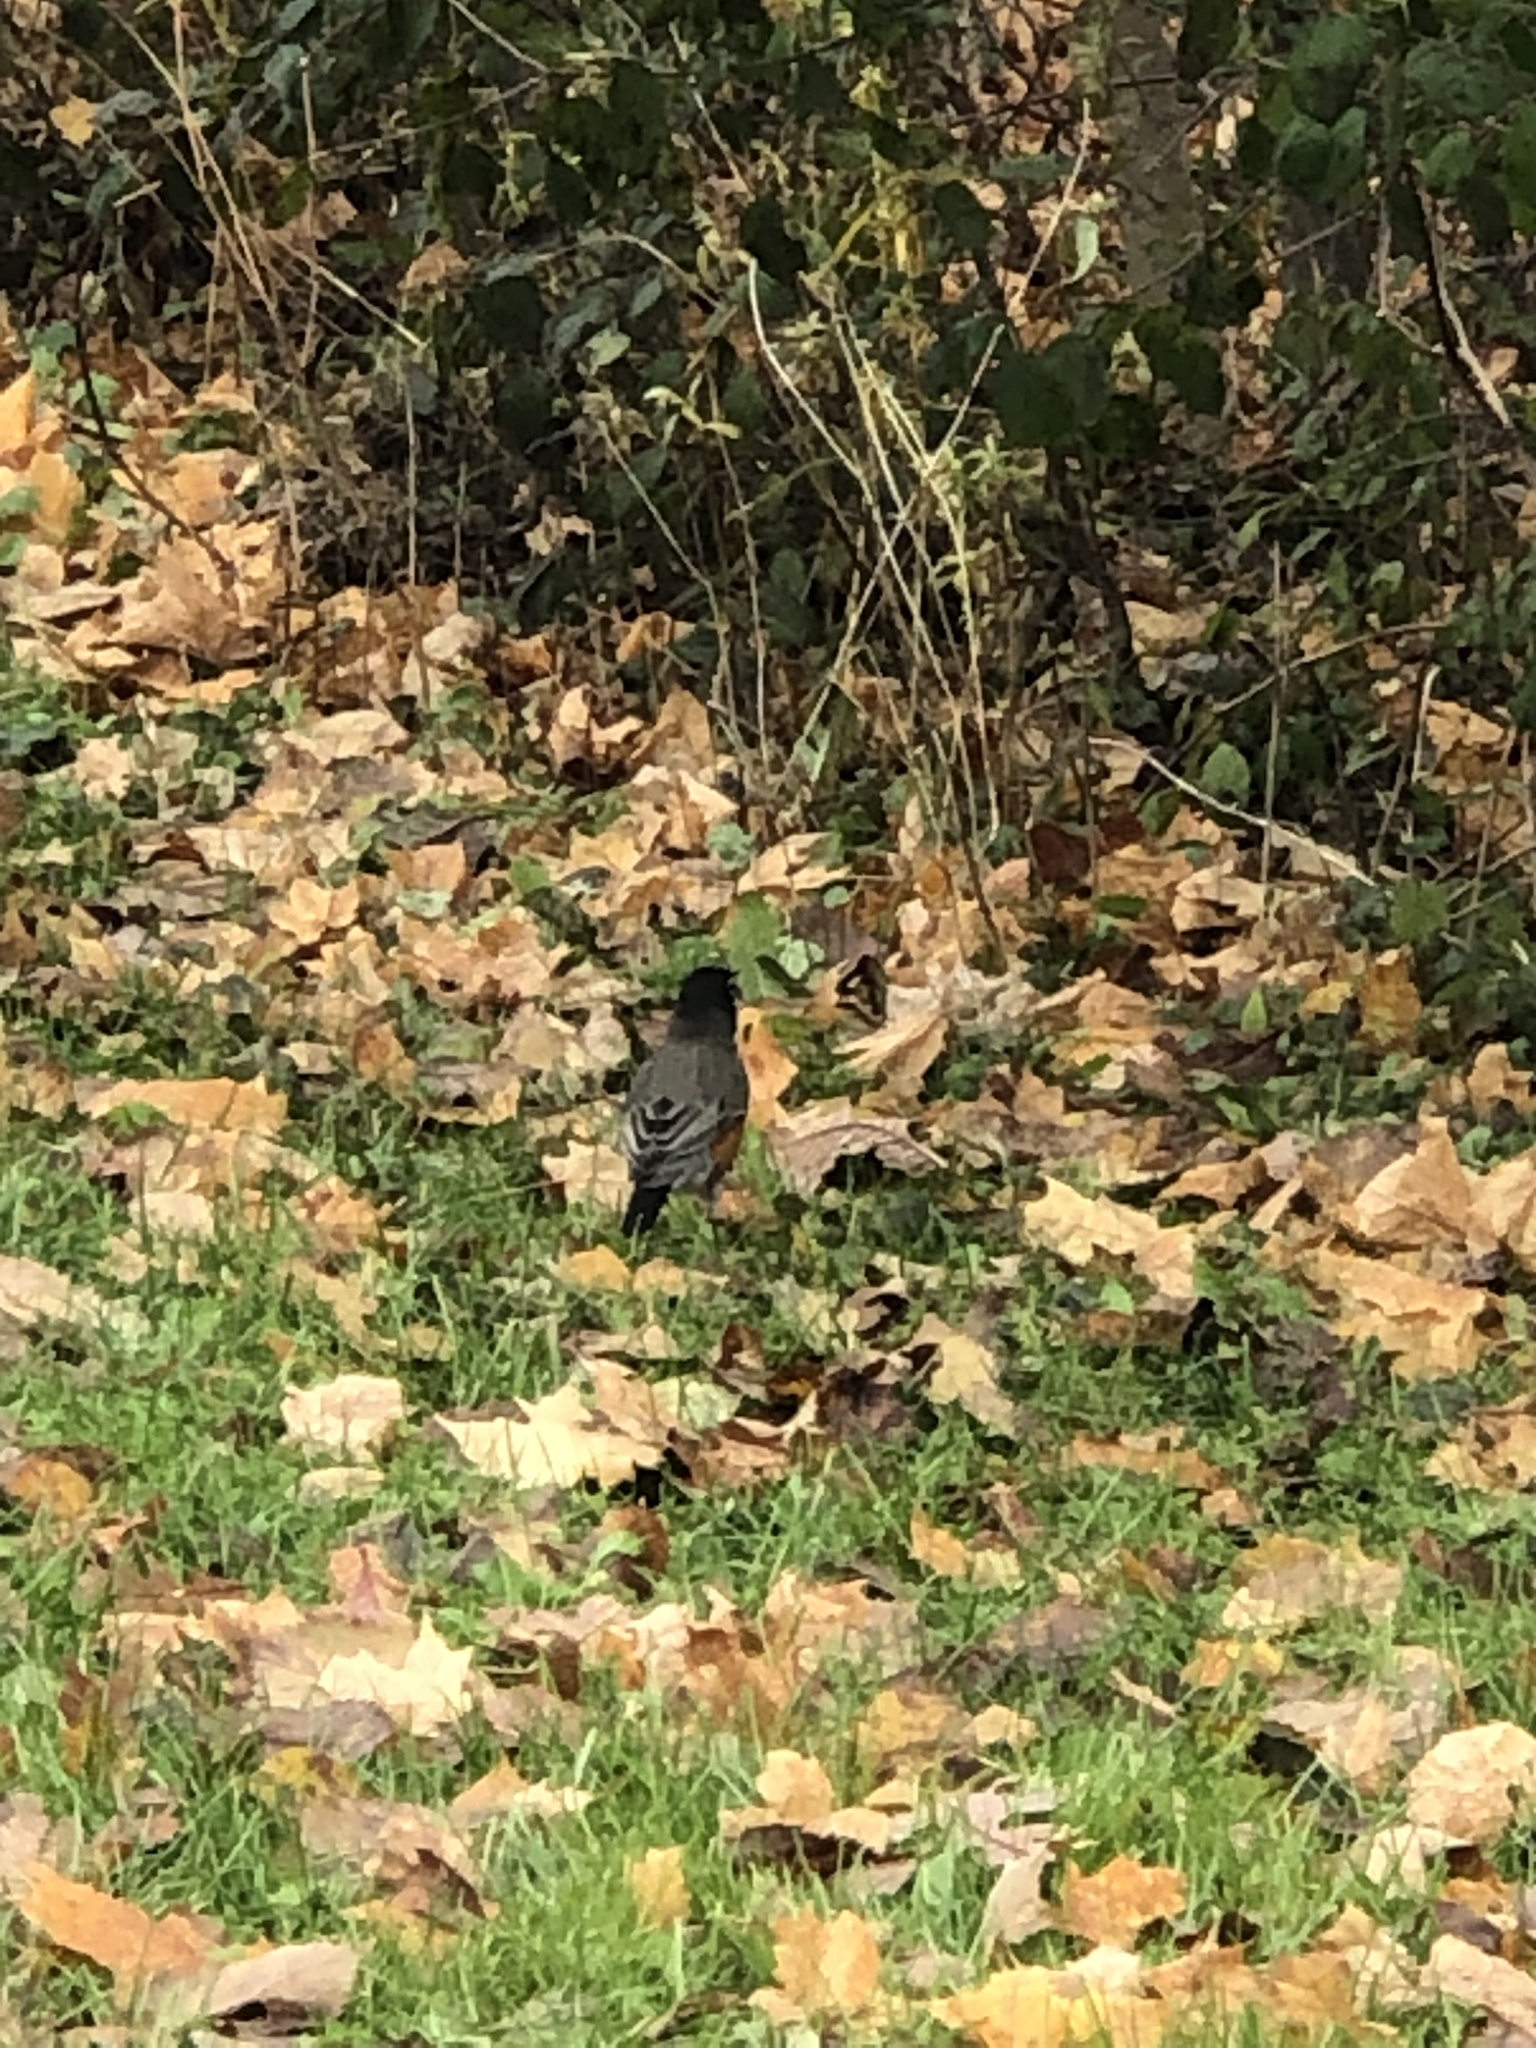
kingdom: Animalia
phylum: Chordata
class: Aves
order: Passeriformes
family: Turdidae
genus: Turdus
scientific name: Turdus migratorius
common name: American robin
